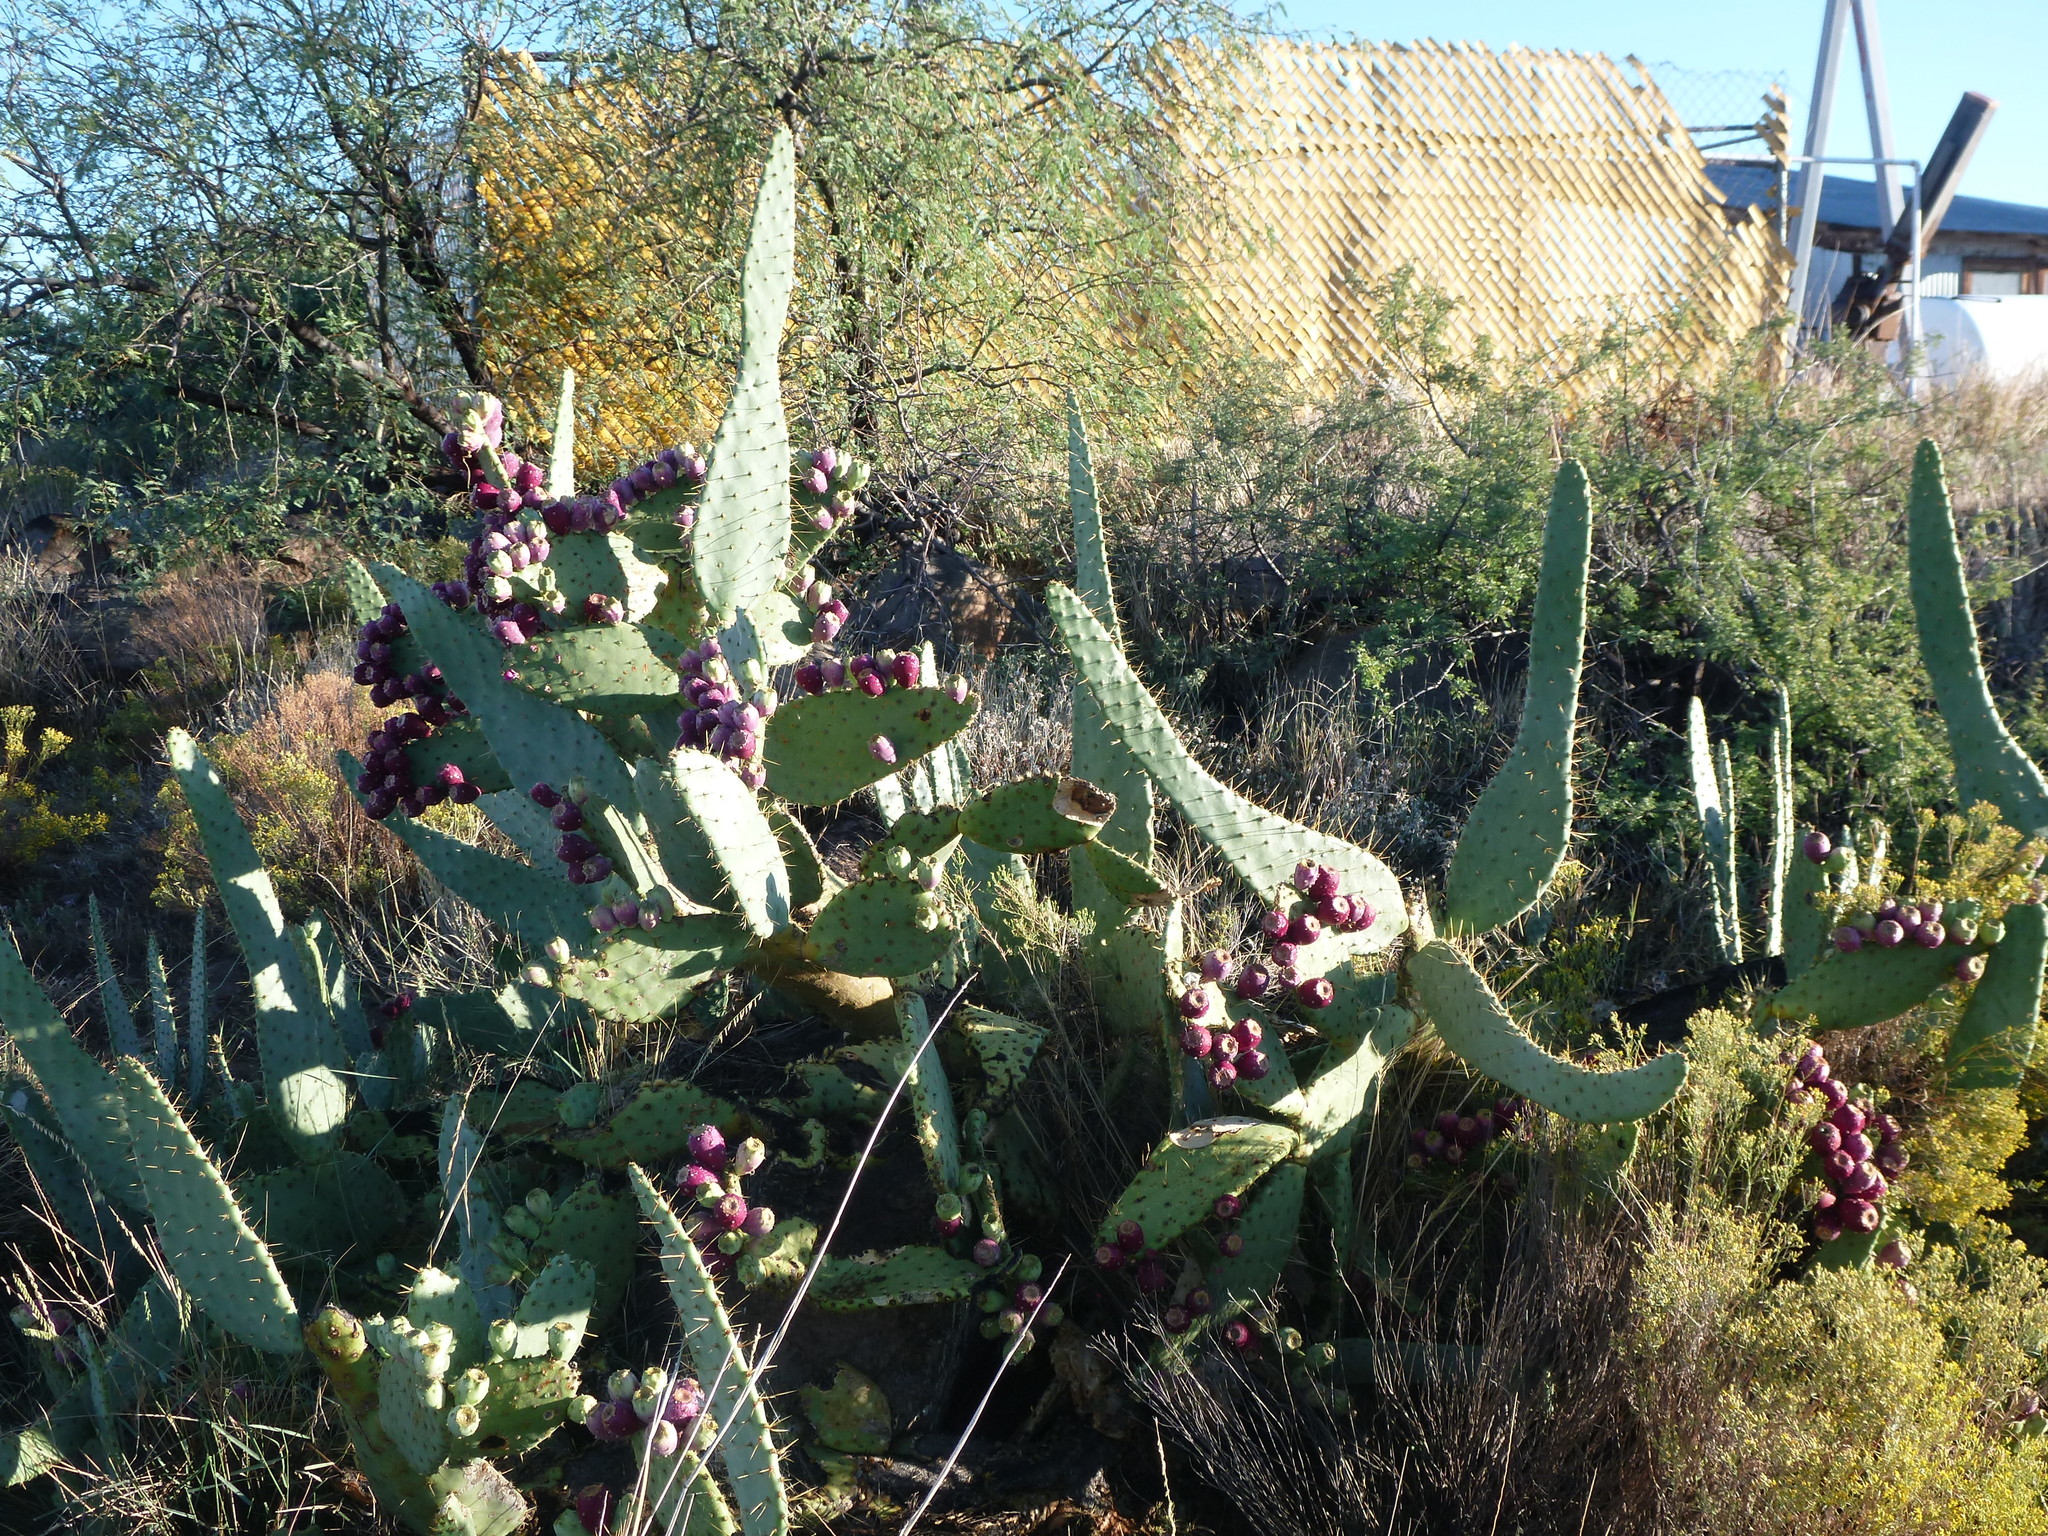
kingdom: Plantae
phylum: Tracheophyta
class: Magnoliopsida
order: Caryophyllales
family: Cactaceae
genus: Opuntia
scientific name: Opuntia engelmannii
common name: Cactus-apple
